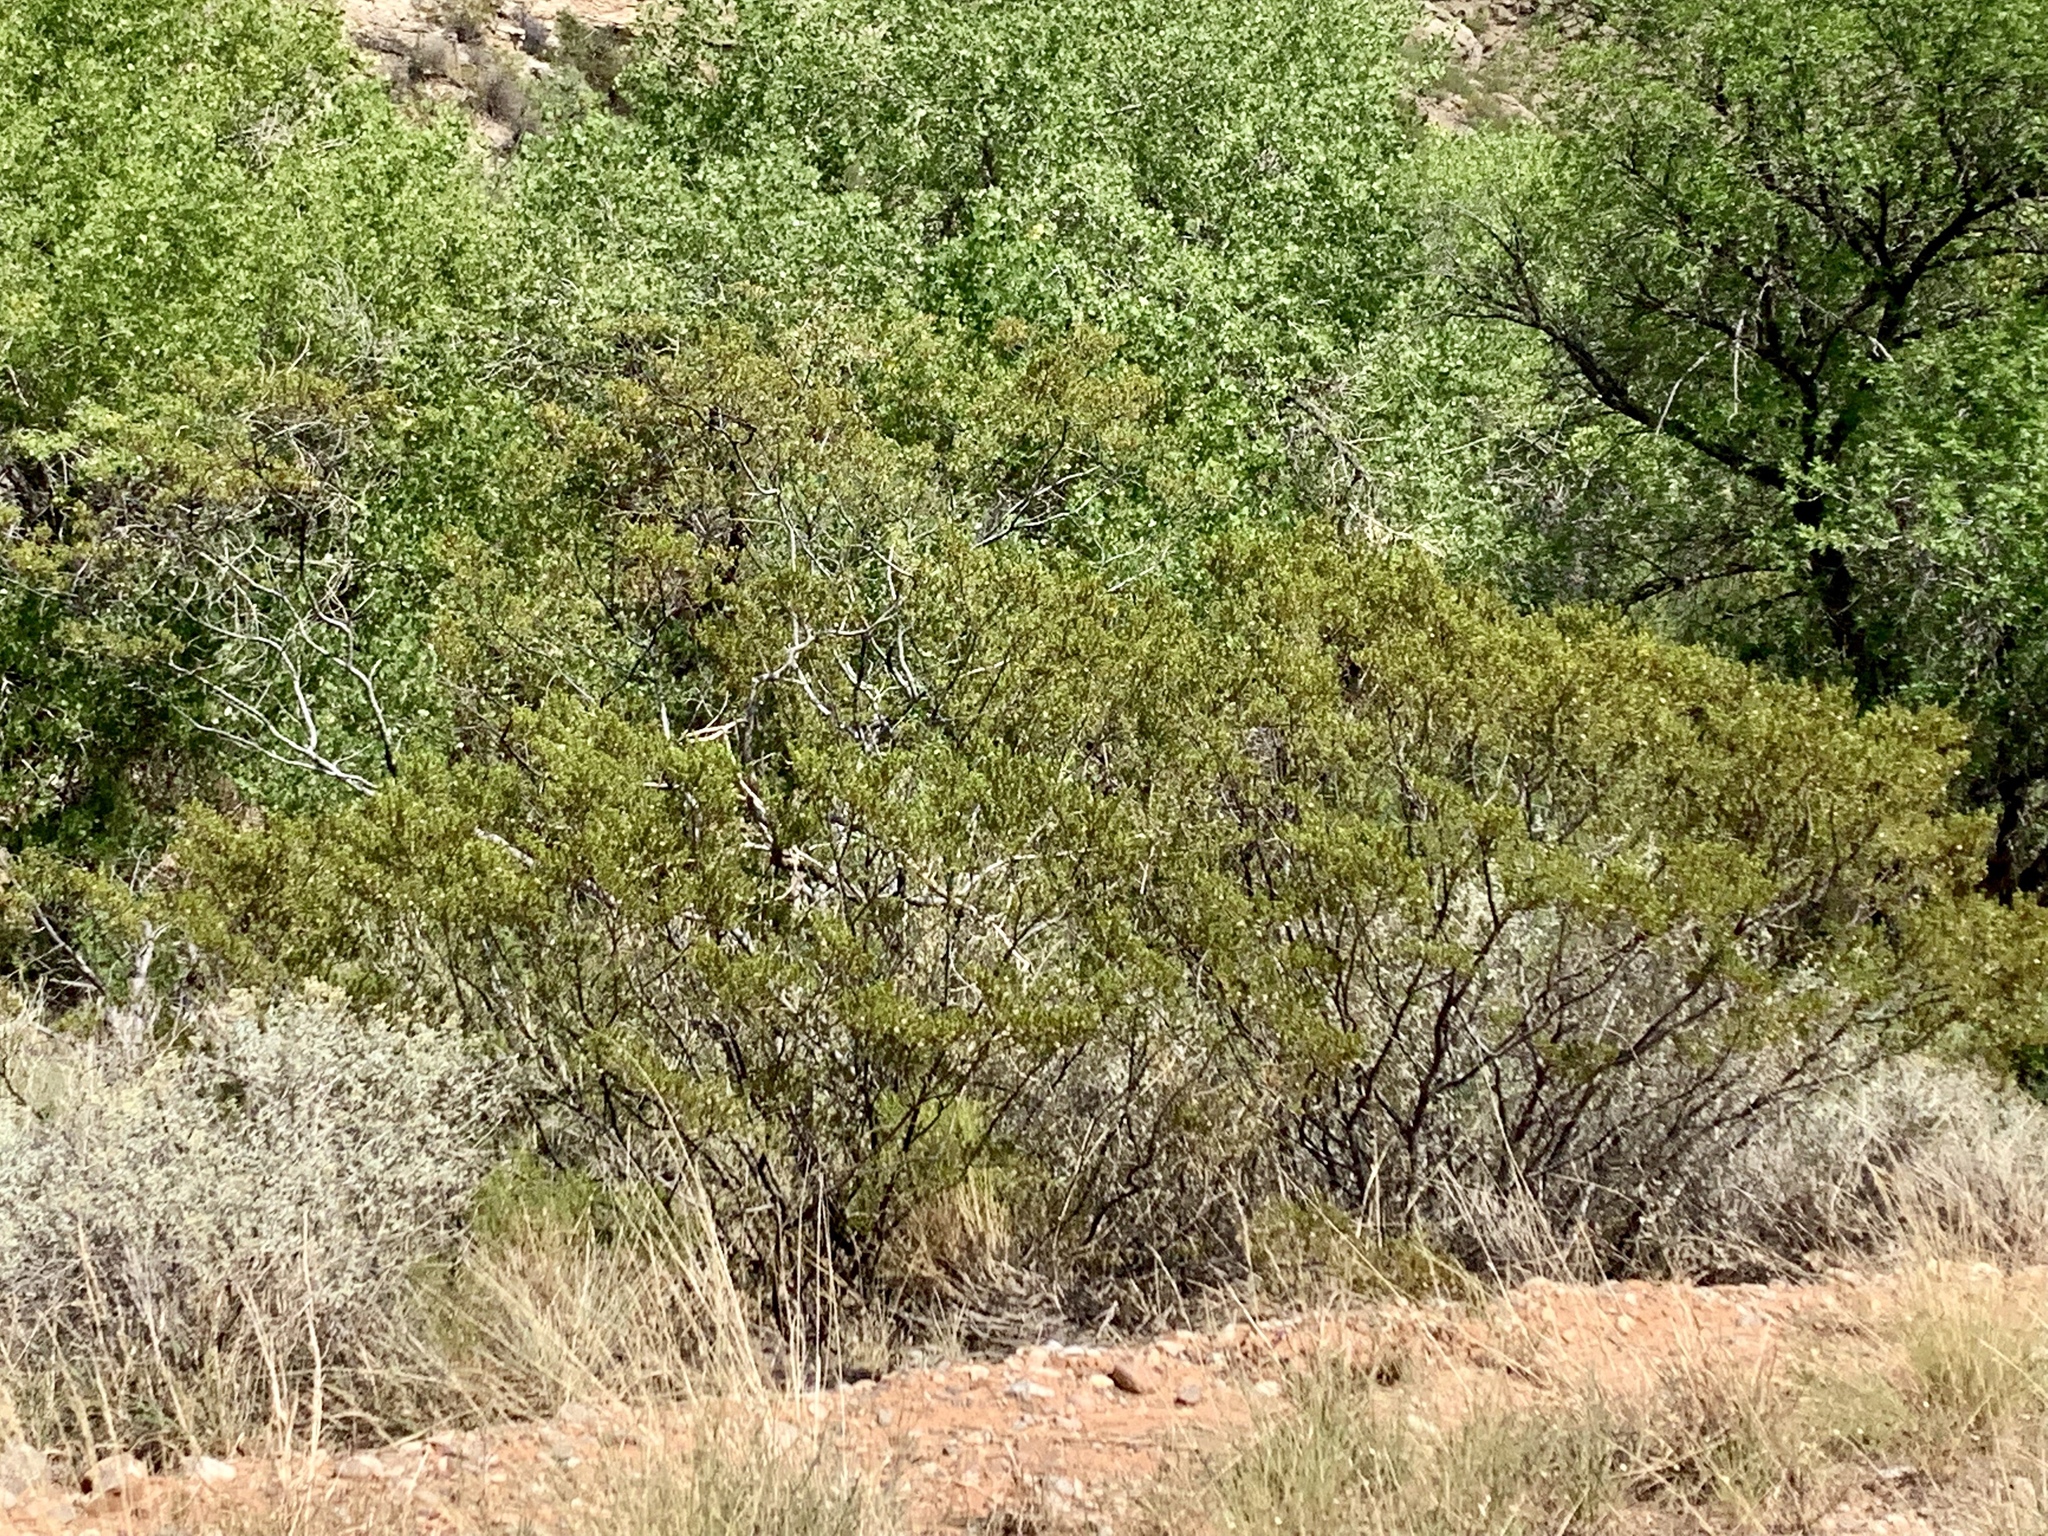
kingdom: Plantae
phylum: Tracheophyta
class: Magnoliopsida
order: Zygophyllales
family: Zygophyllaceae
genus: Larrea
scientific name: Larrea tridentata
